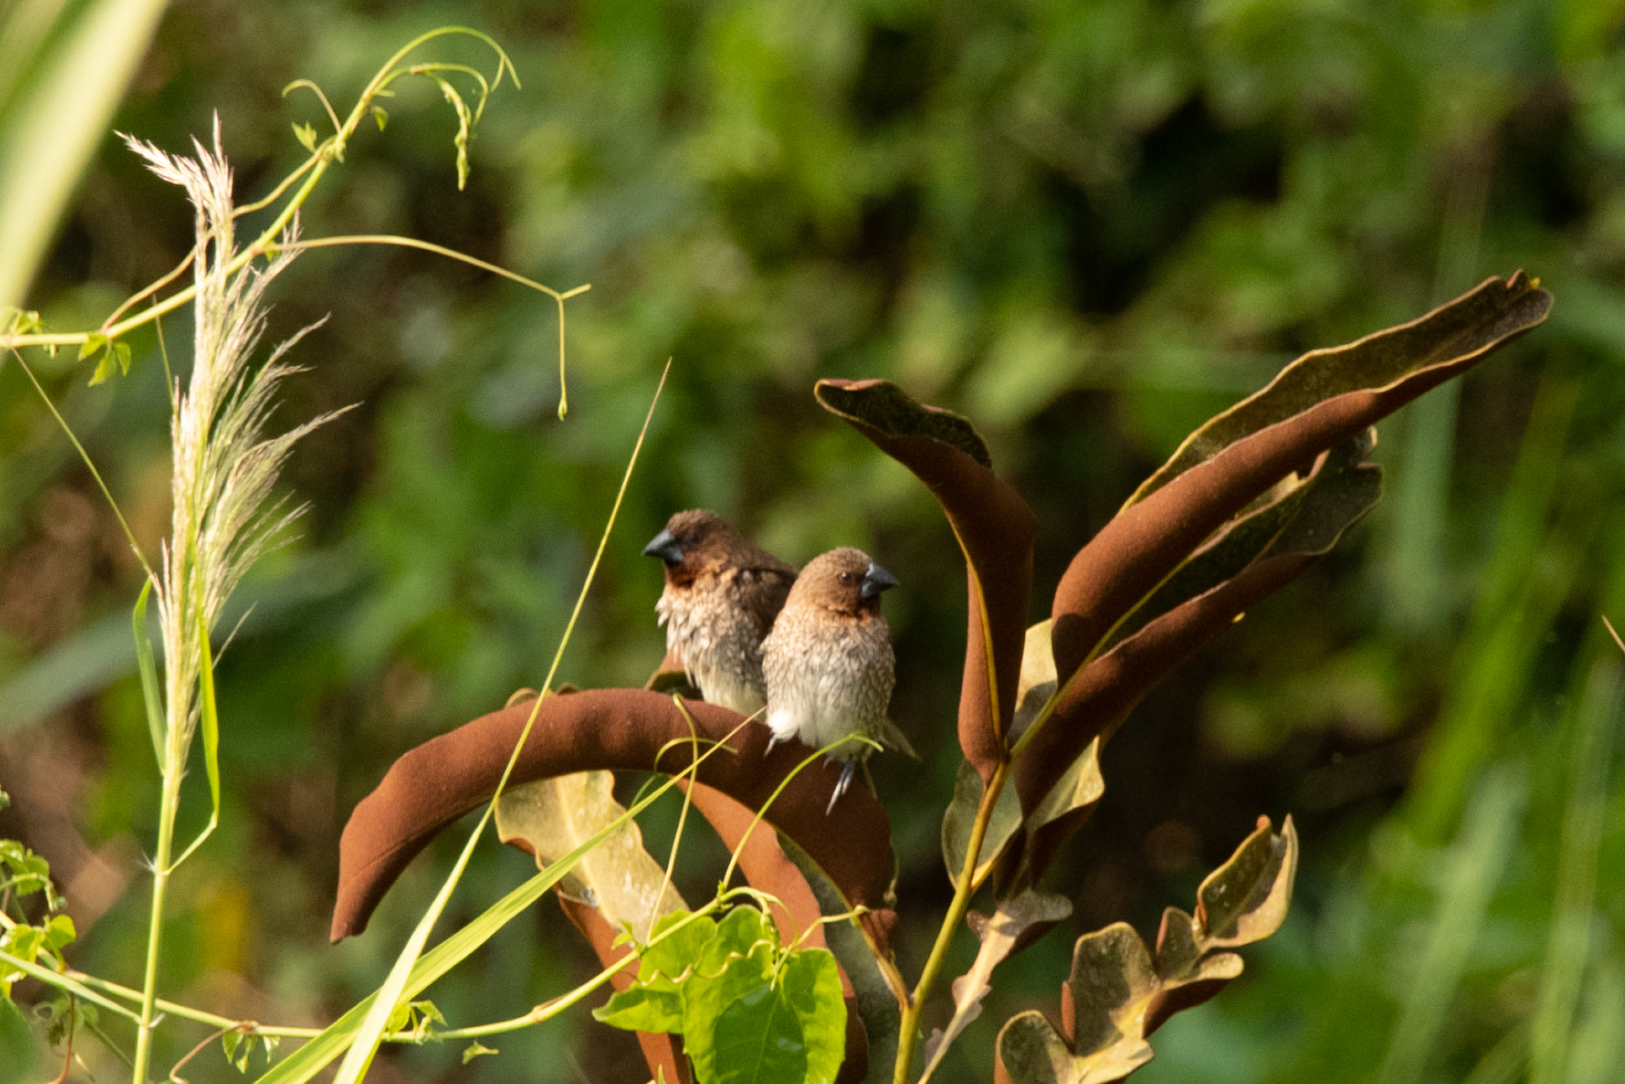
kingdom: Animalia
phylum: Chordata
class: Aves
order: Passeriformes
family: Estrildidae
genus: Lonchura
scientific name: Lonchura punctulata
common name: Scaly-breasted munia
